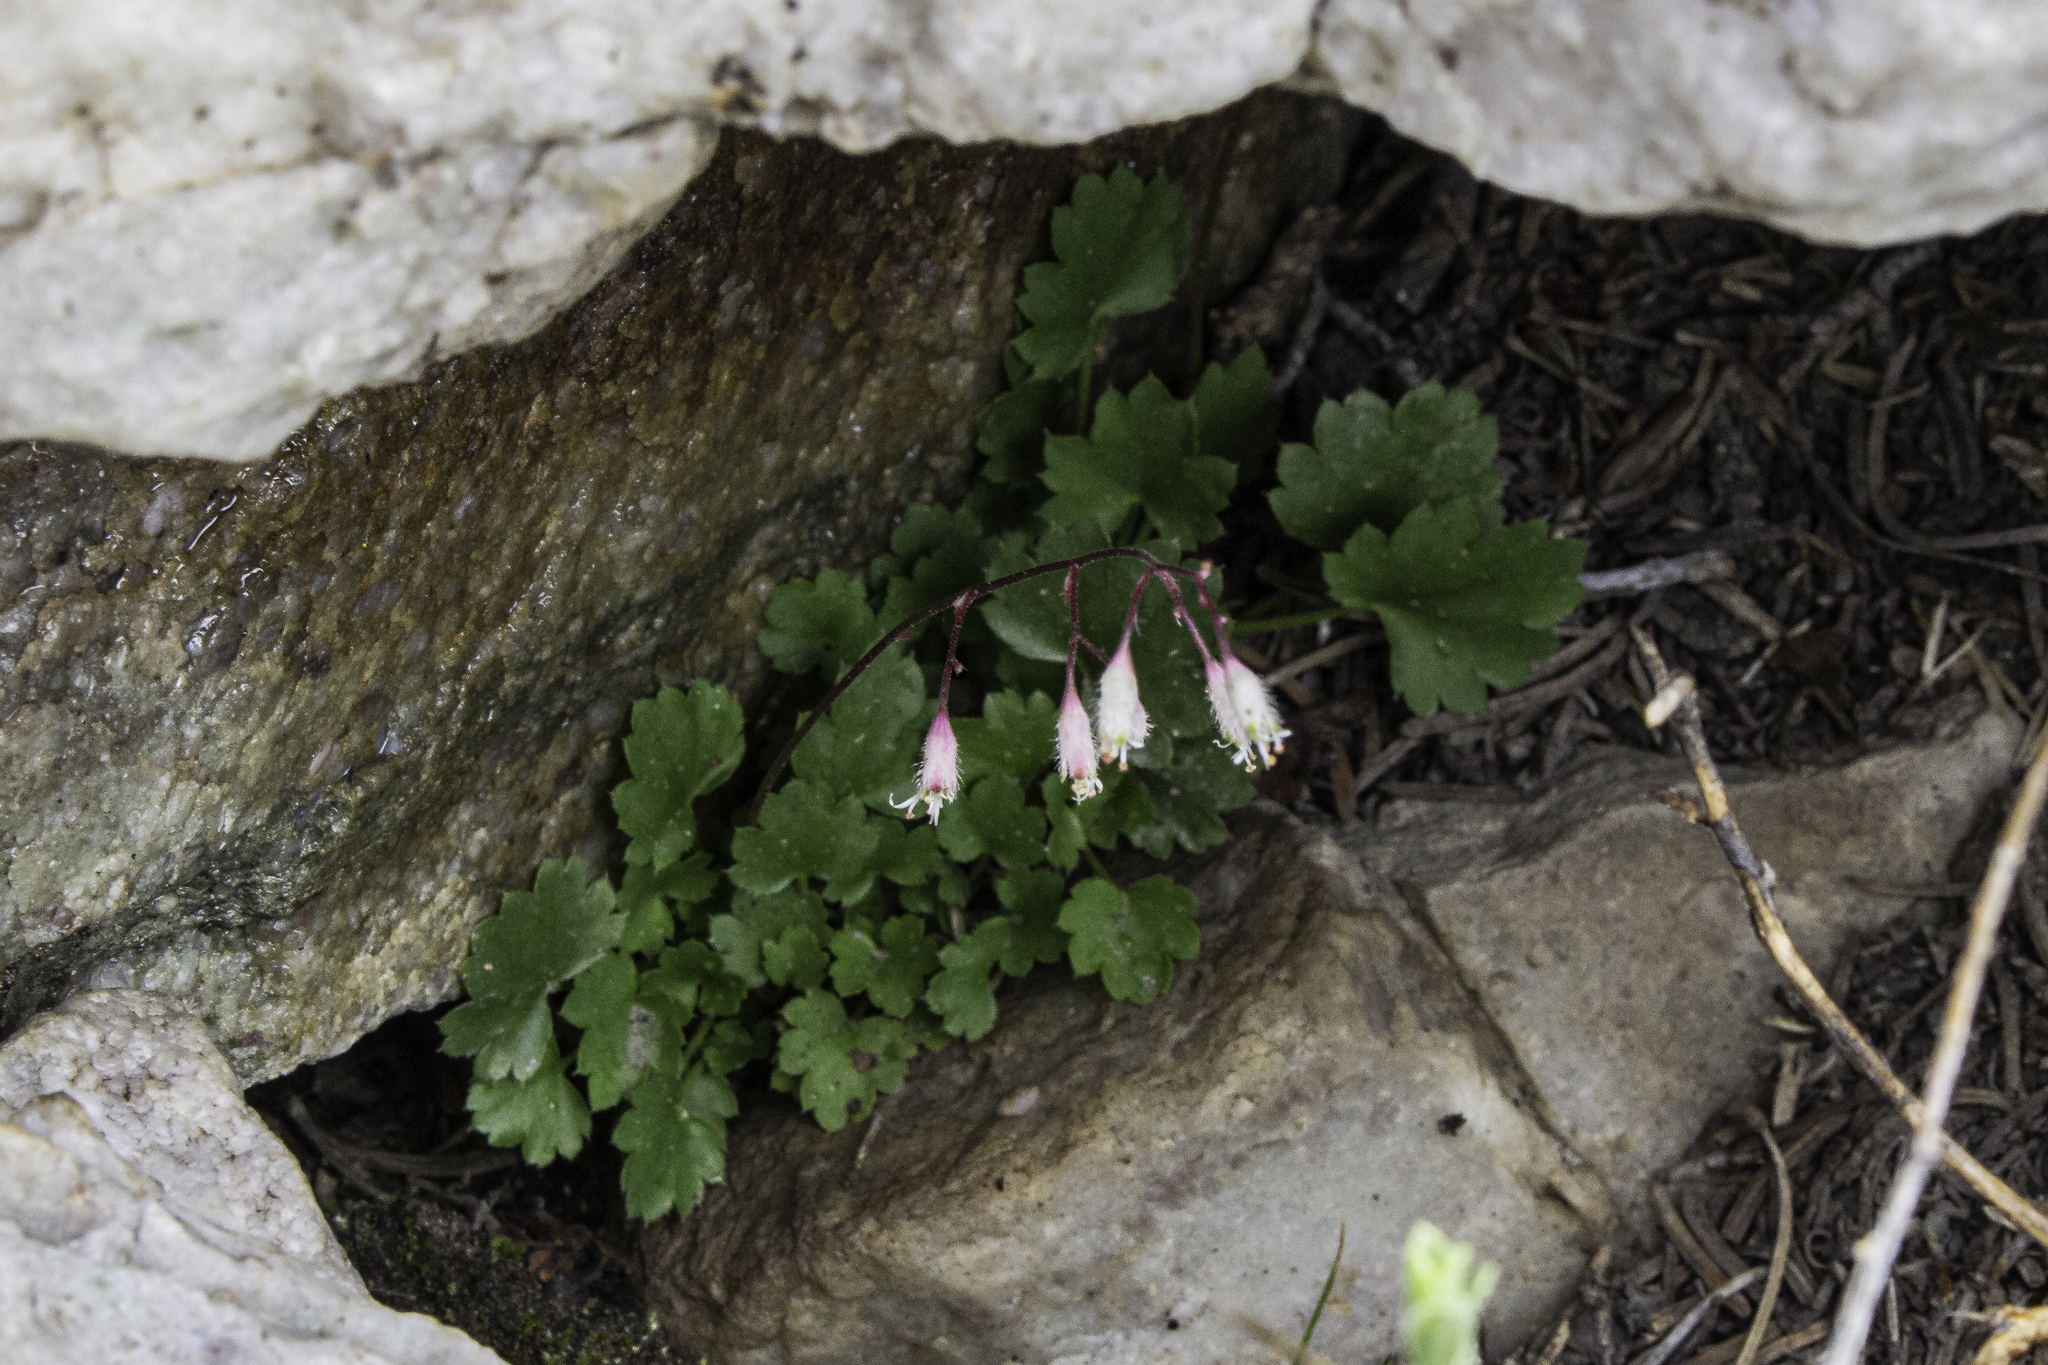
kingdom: Plantae
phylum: Tracheophyta
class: Magnoliopsida
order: Saxifragales
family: Saxifragaceae
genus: Heuchera
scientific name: Heuchera rubescens
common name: Jack-o'the-rocks
